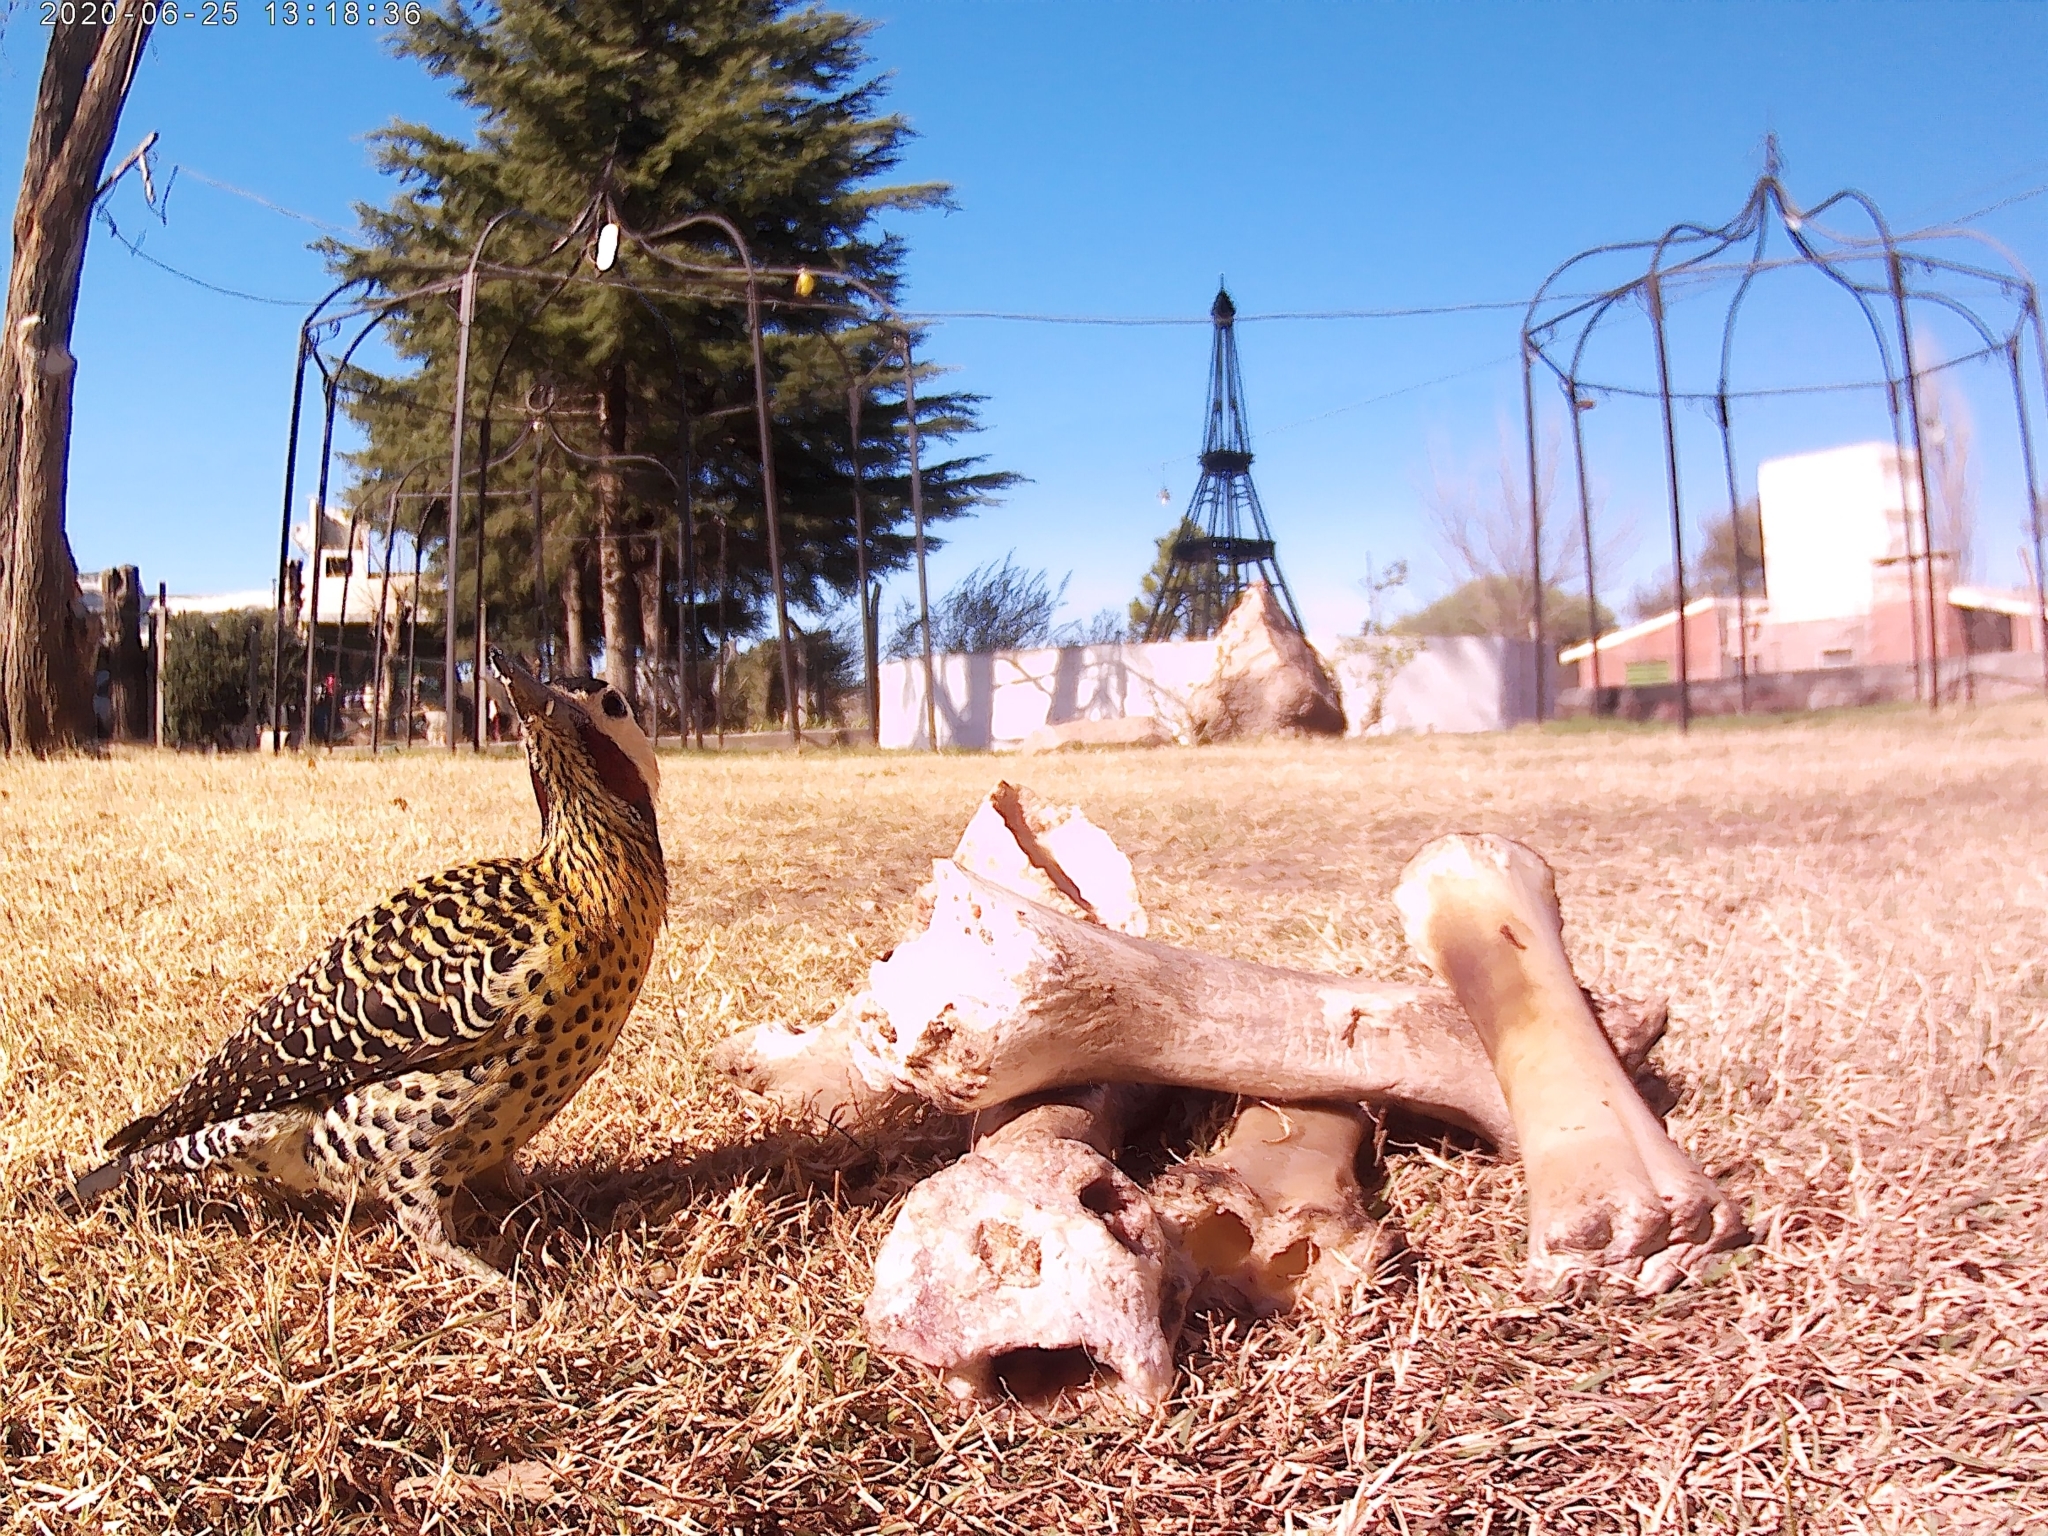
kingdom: Animalia
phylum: Chordata
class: Aves
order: Piciformes
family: Picidae
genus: Colaptes
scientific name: Colaptes melanochloros
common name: Green-barred woodpecker
